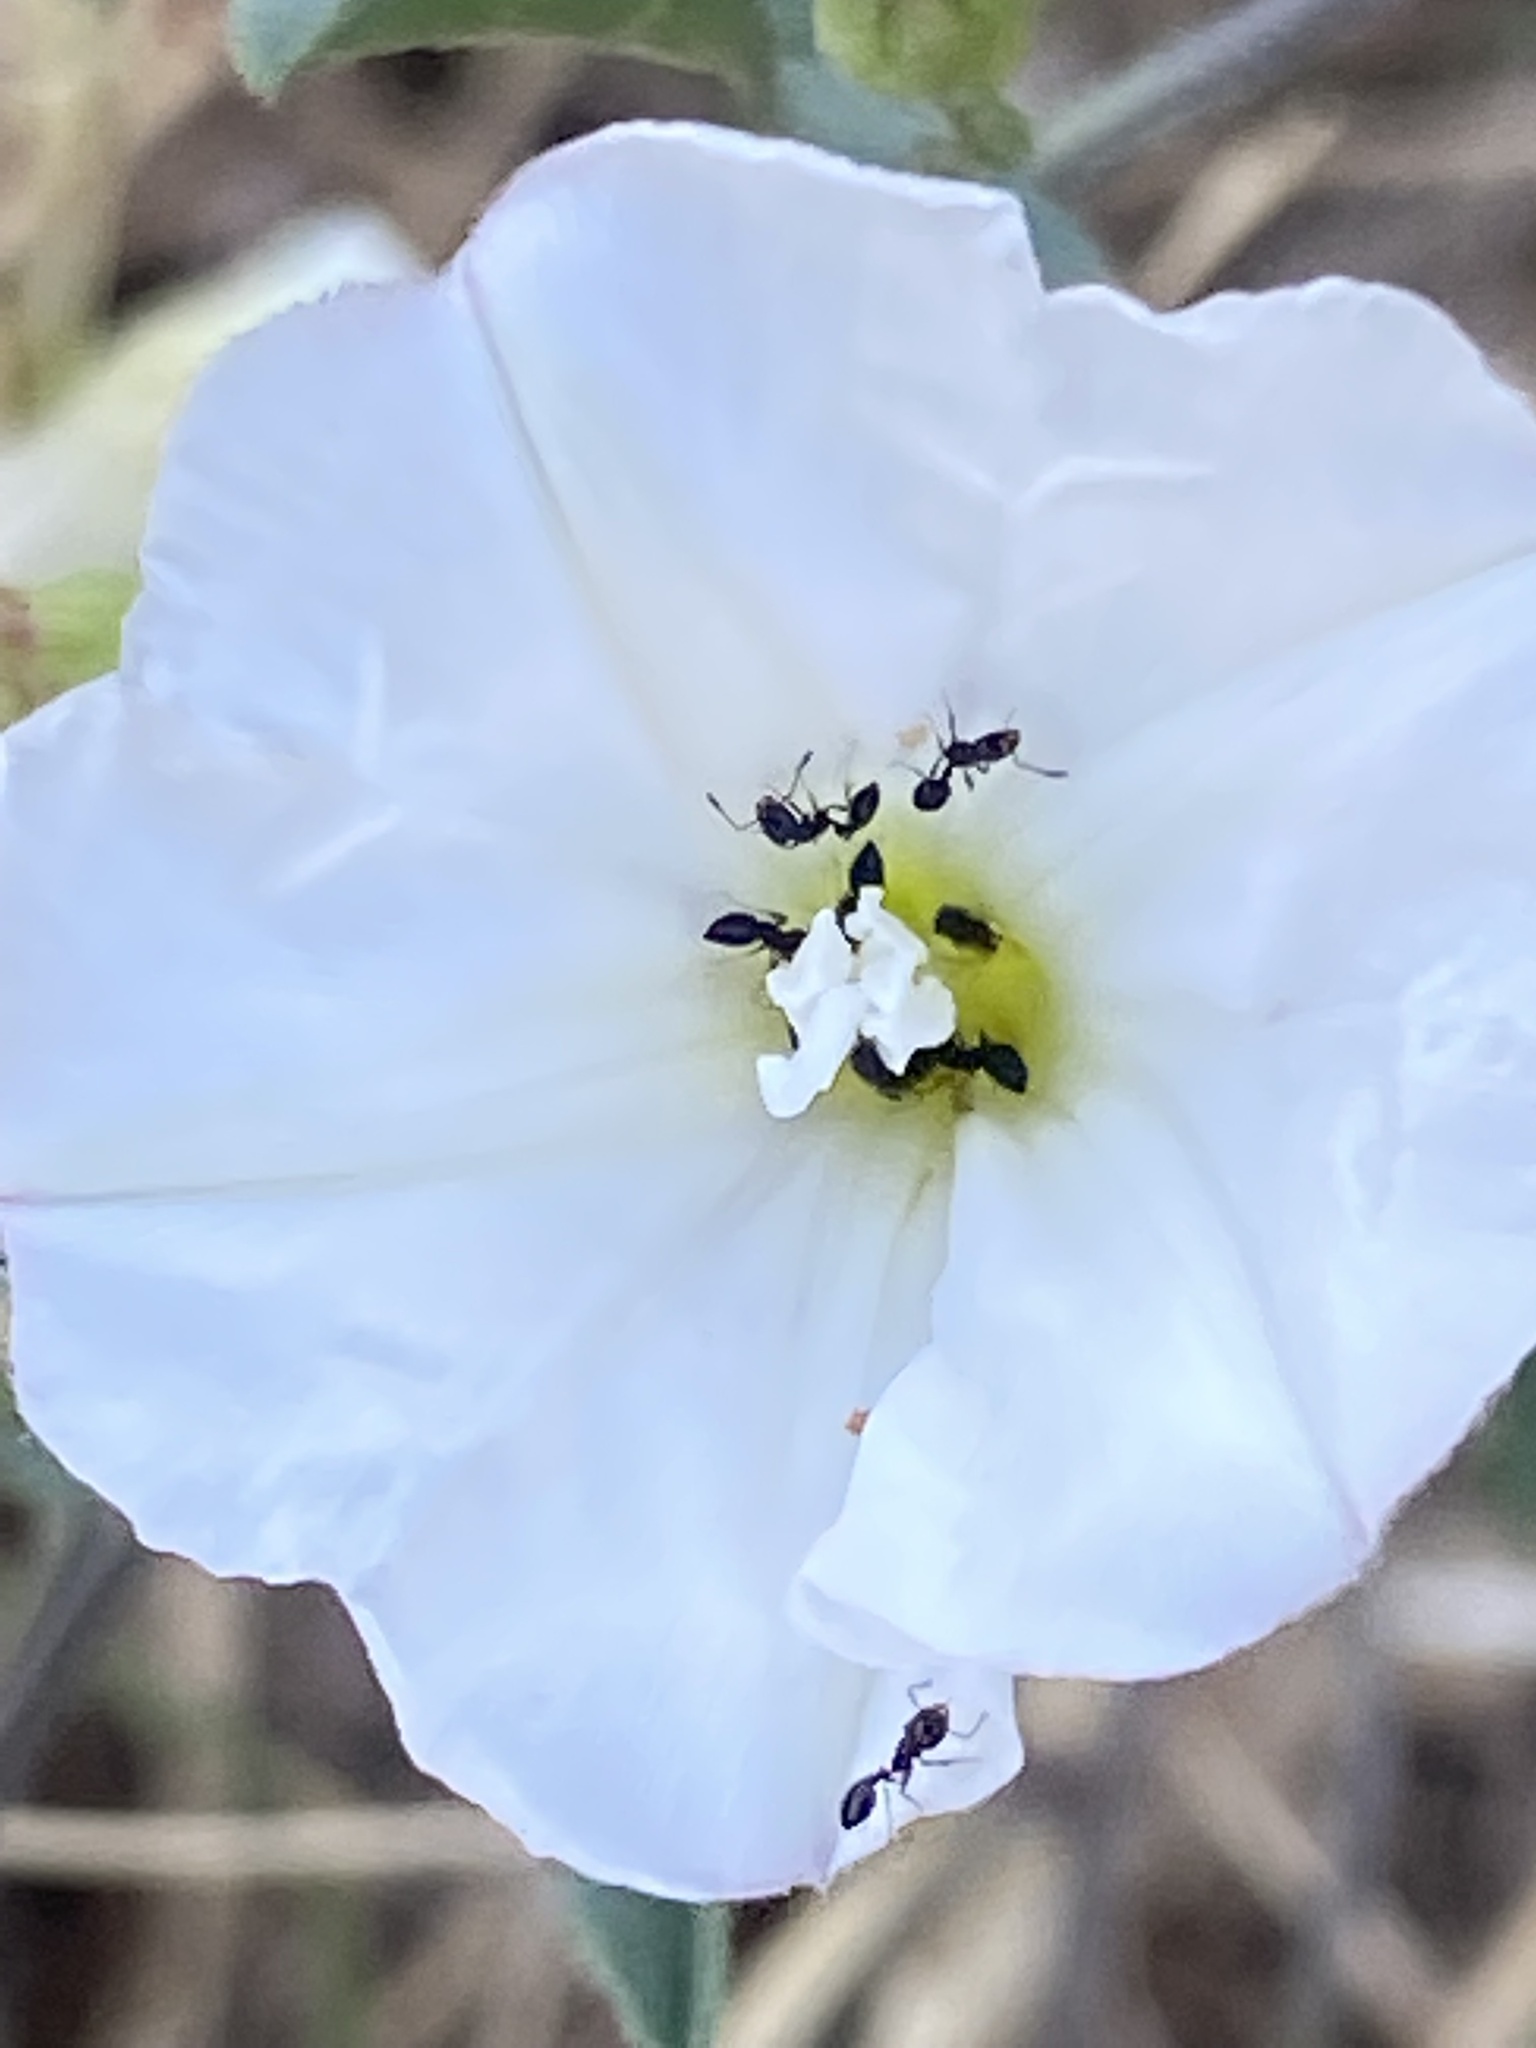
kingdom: Animalia
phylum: Arthropoda
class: Insecta
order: Hymenoptera
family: Formicidae
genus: Monomorium
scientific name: Monomorium minimum
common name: Little black ant
